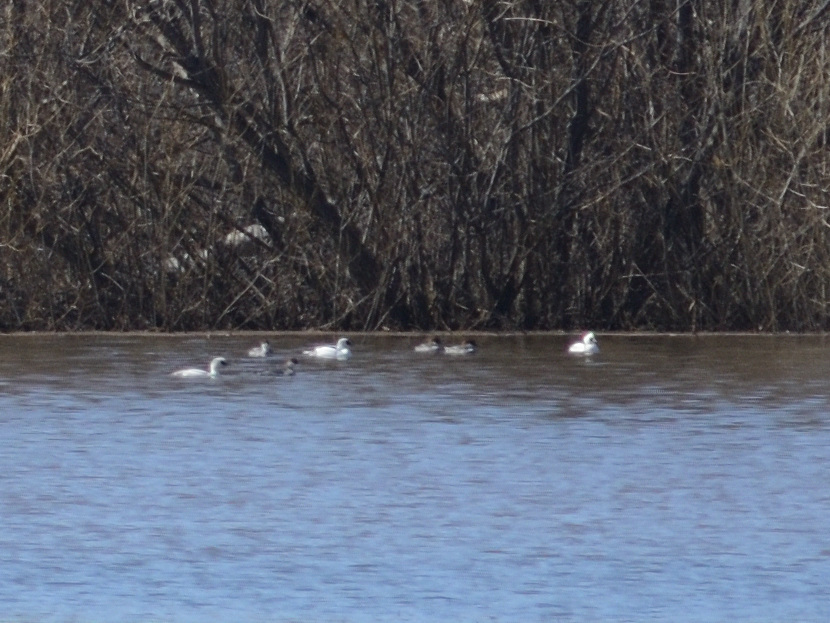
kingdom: Animalia
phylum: Chordata
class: Aves
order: Anseriformes
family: Anatidae
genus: Mergellus
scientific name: Mergellus albellus
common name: Smew
